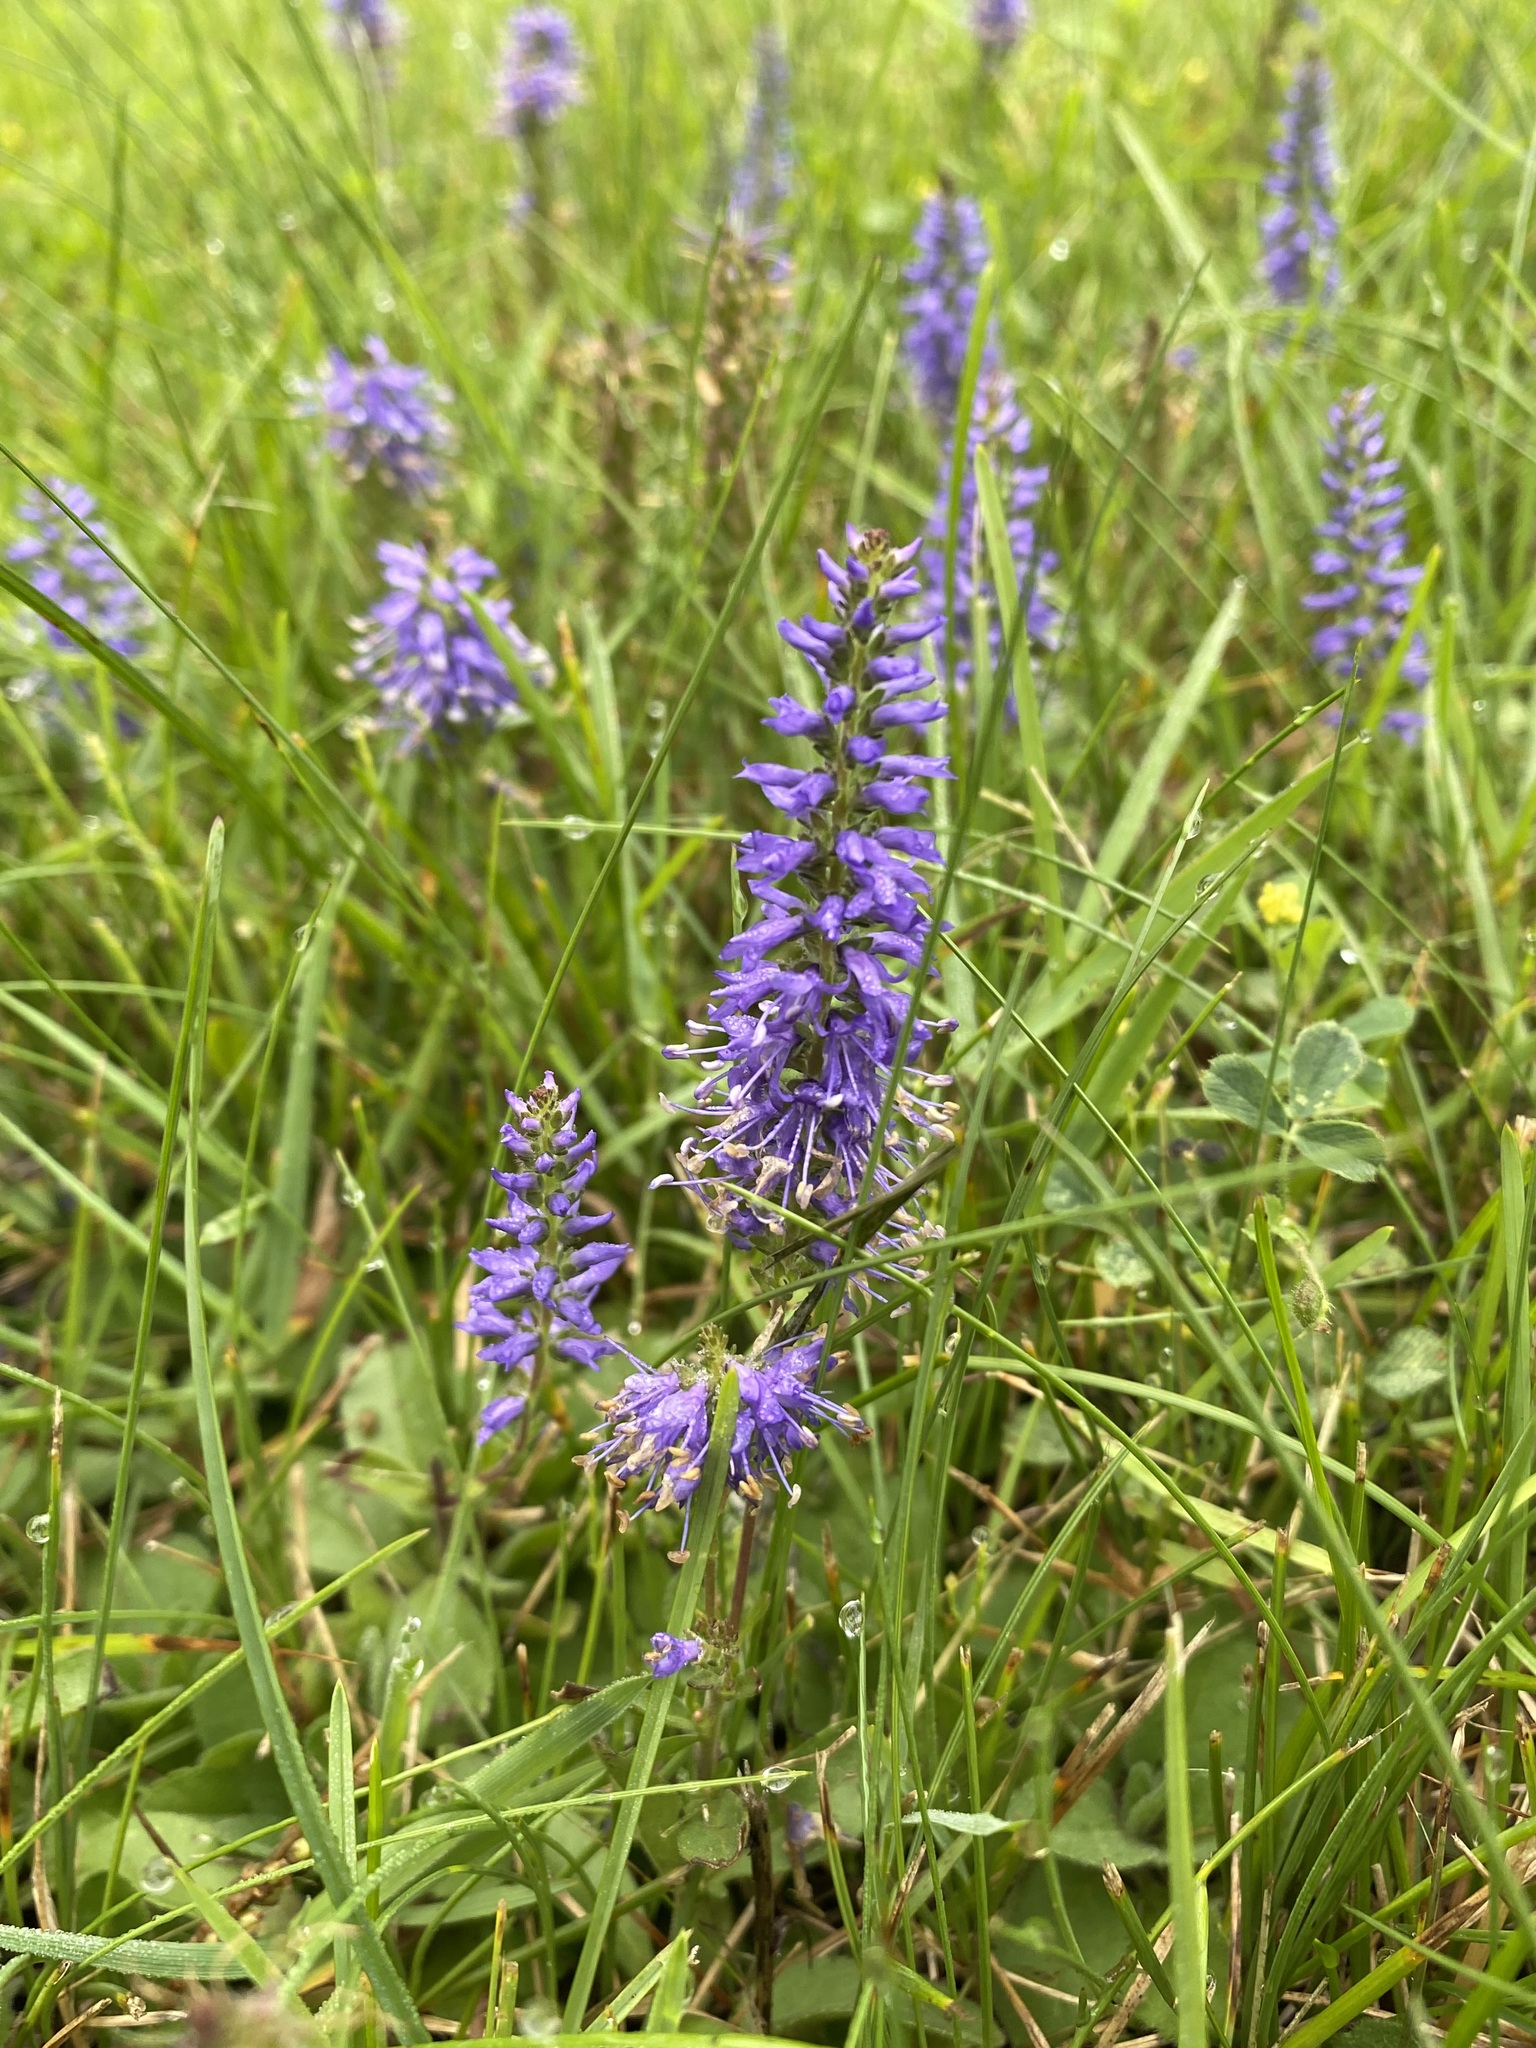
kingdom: Plantae
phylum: Tracheophyta
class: Magnoliopsida
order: Lamiales
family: Plantaginaceae
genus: Veronica
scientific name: Veronica longifolia
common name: Garden speedwell
